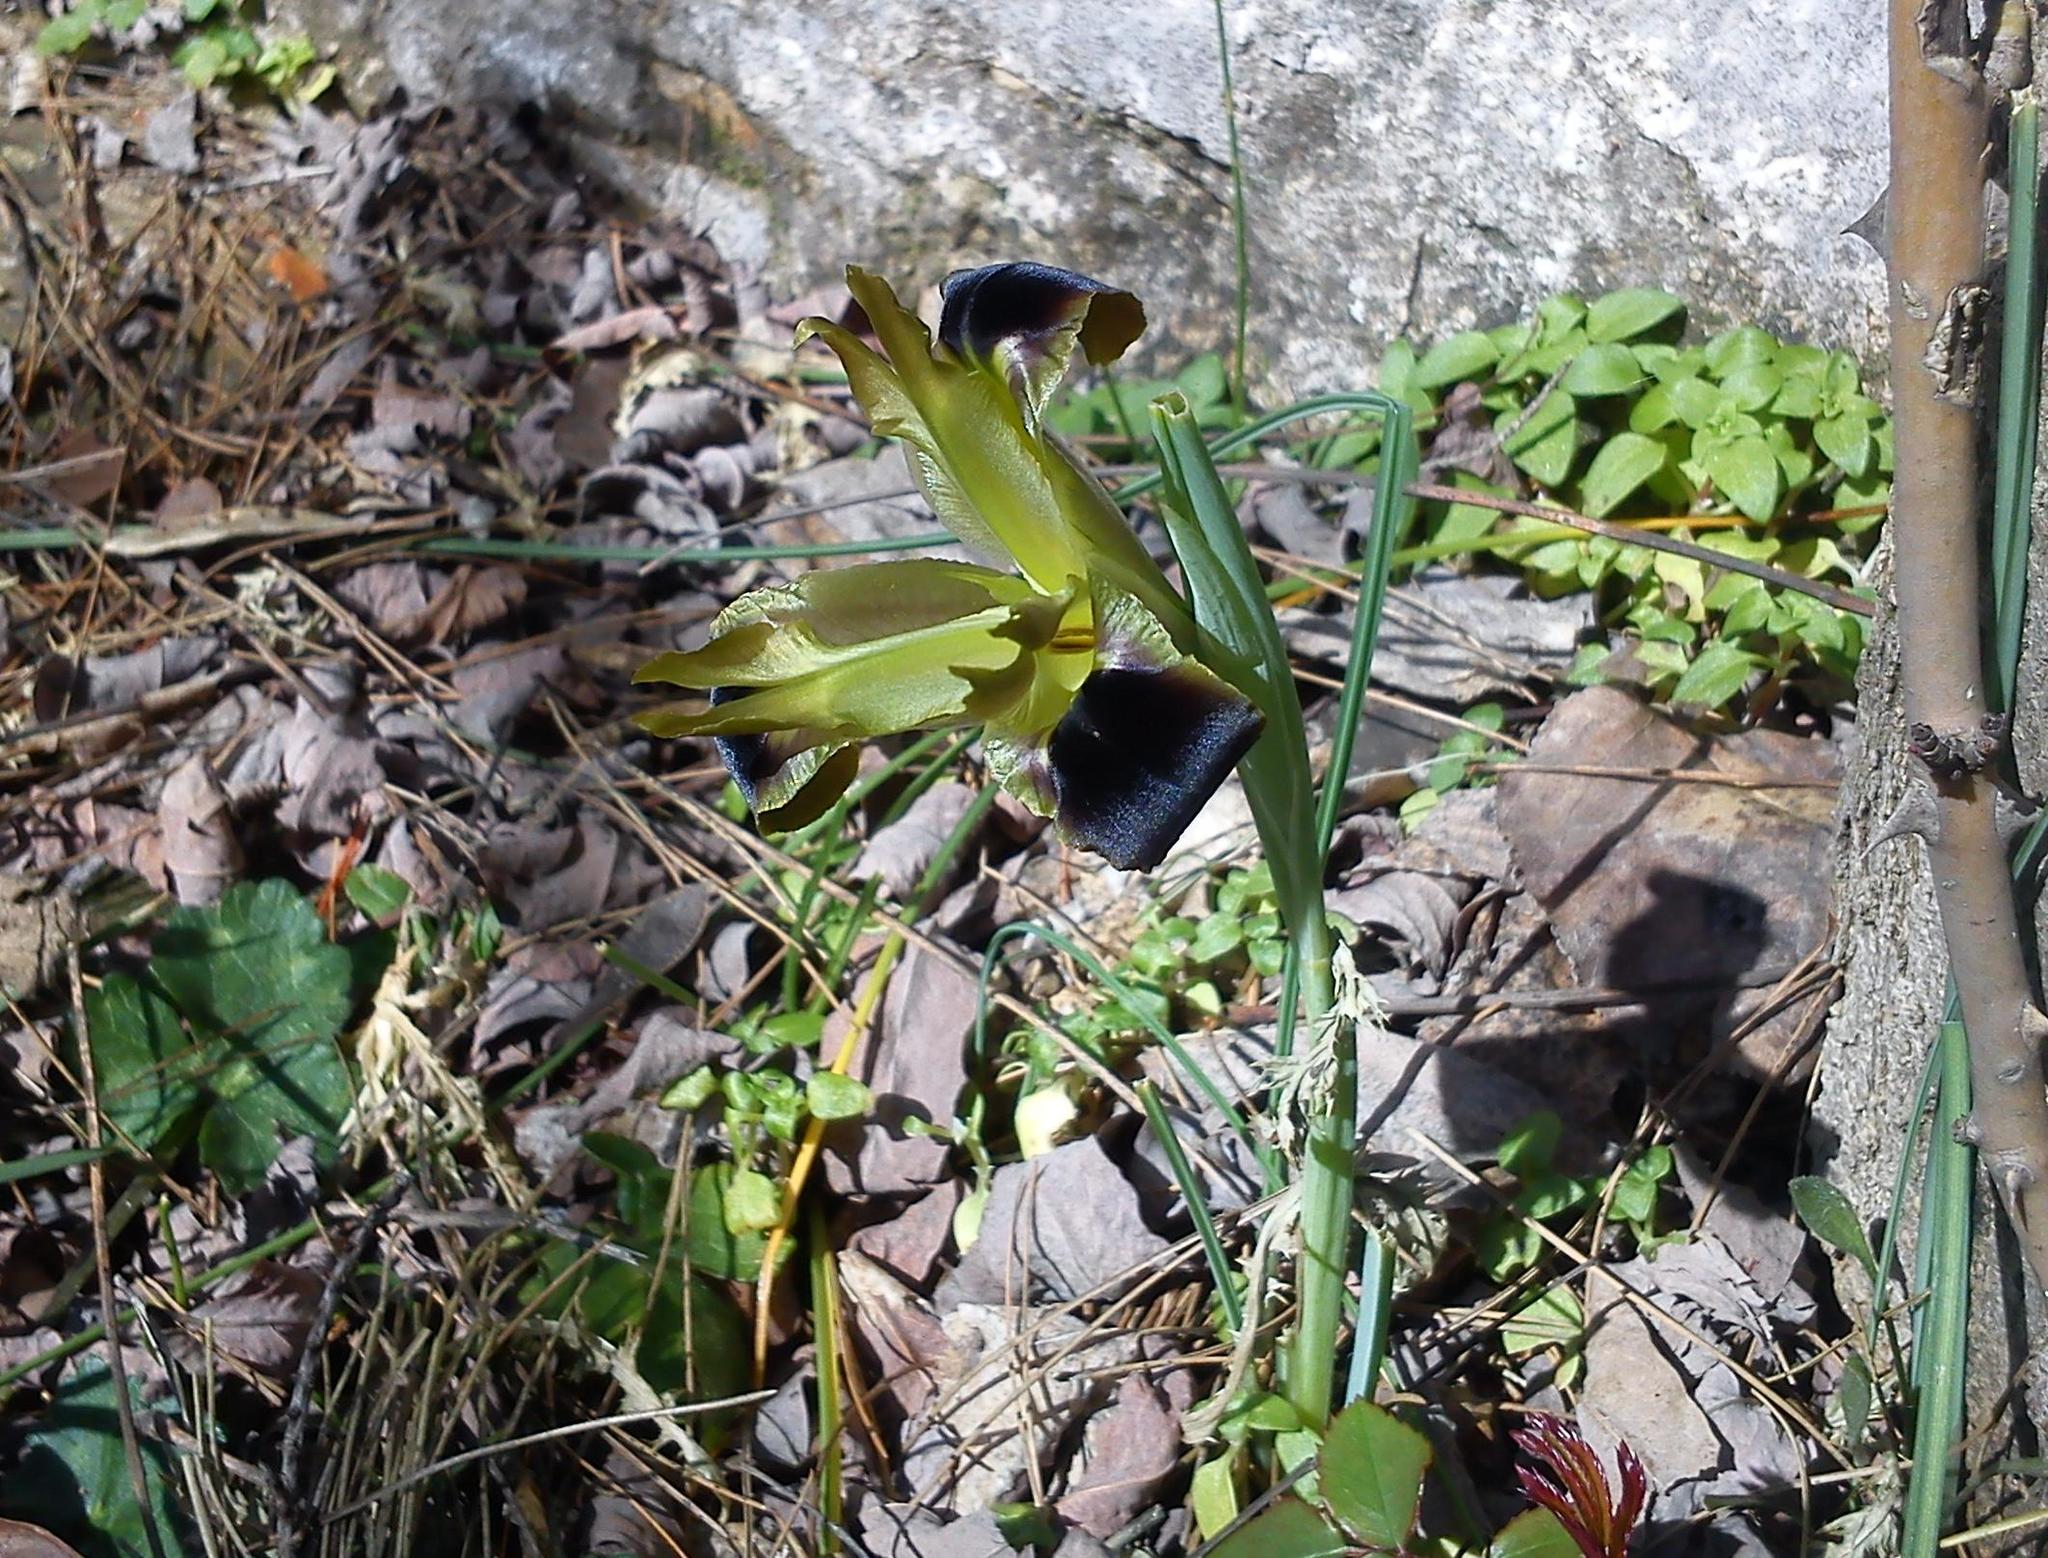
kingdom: Plantae
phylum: Tracheophyta
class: Liliopsida
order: Asparagales
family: Iridaceae
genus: Iris
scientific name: Iris tuberosa
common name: Snake's-head iris
